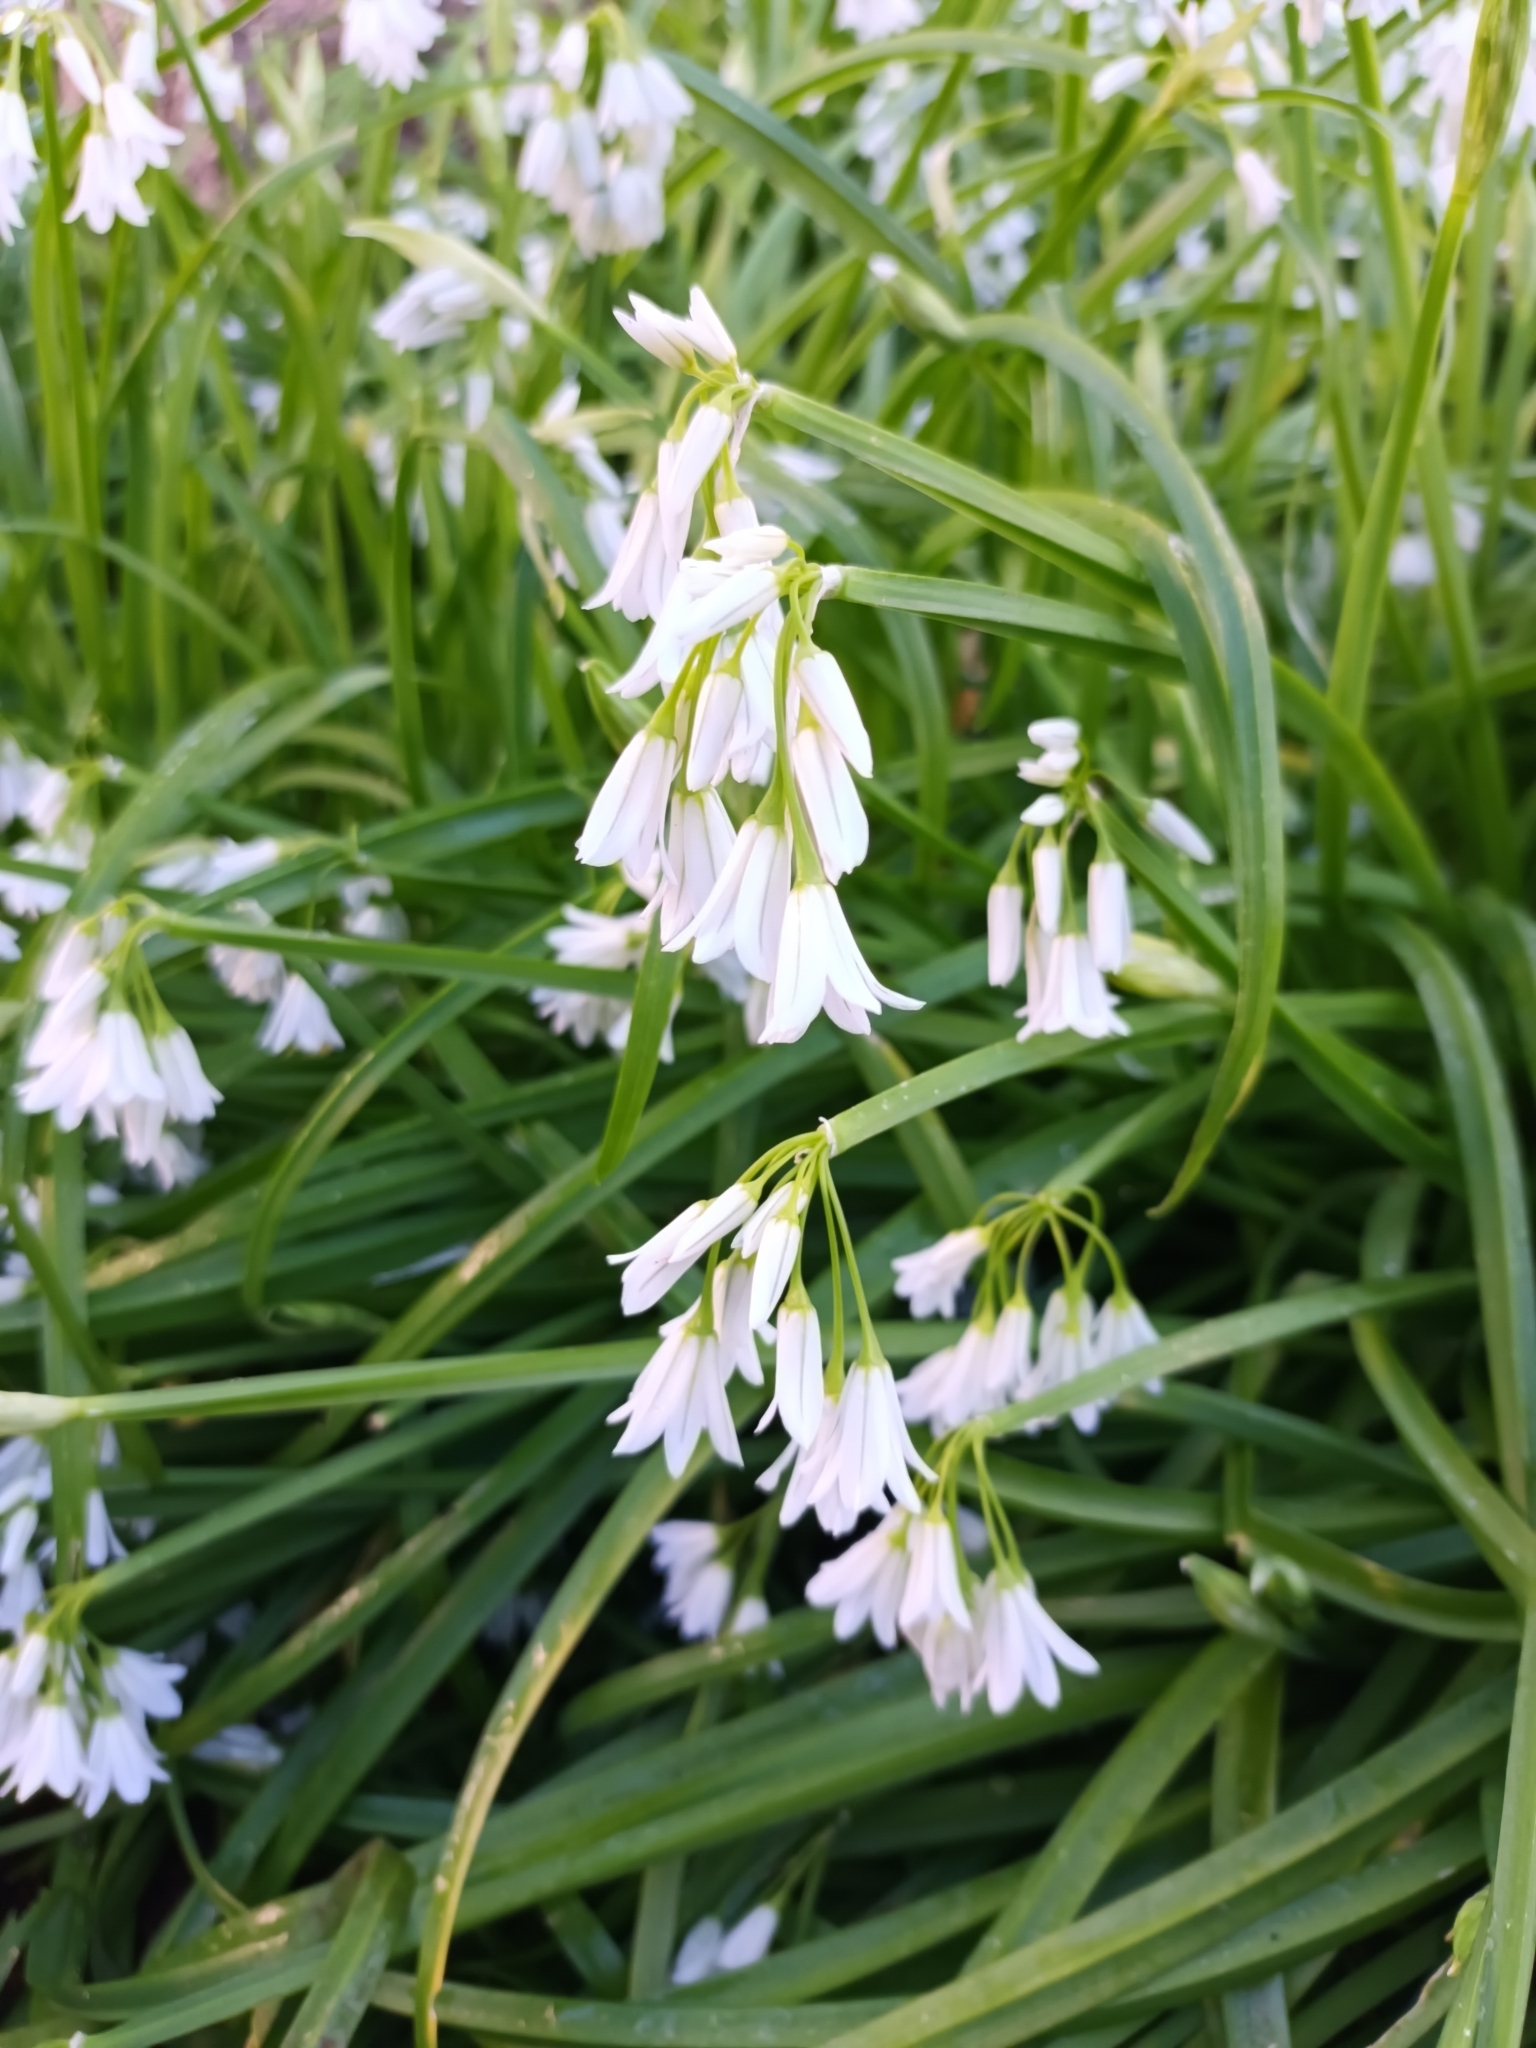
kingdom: Plantae
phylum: Tracheophyta
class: Liliopsida
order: Asparagales
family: Amaryllidaceae
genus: Allium
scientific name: Allium triquetrum
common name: Three-cornered garlic
